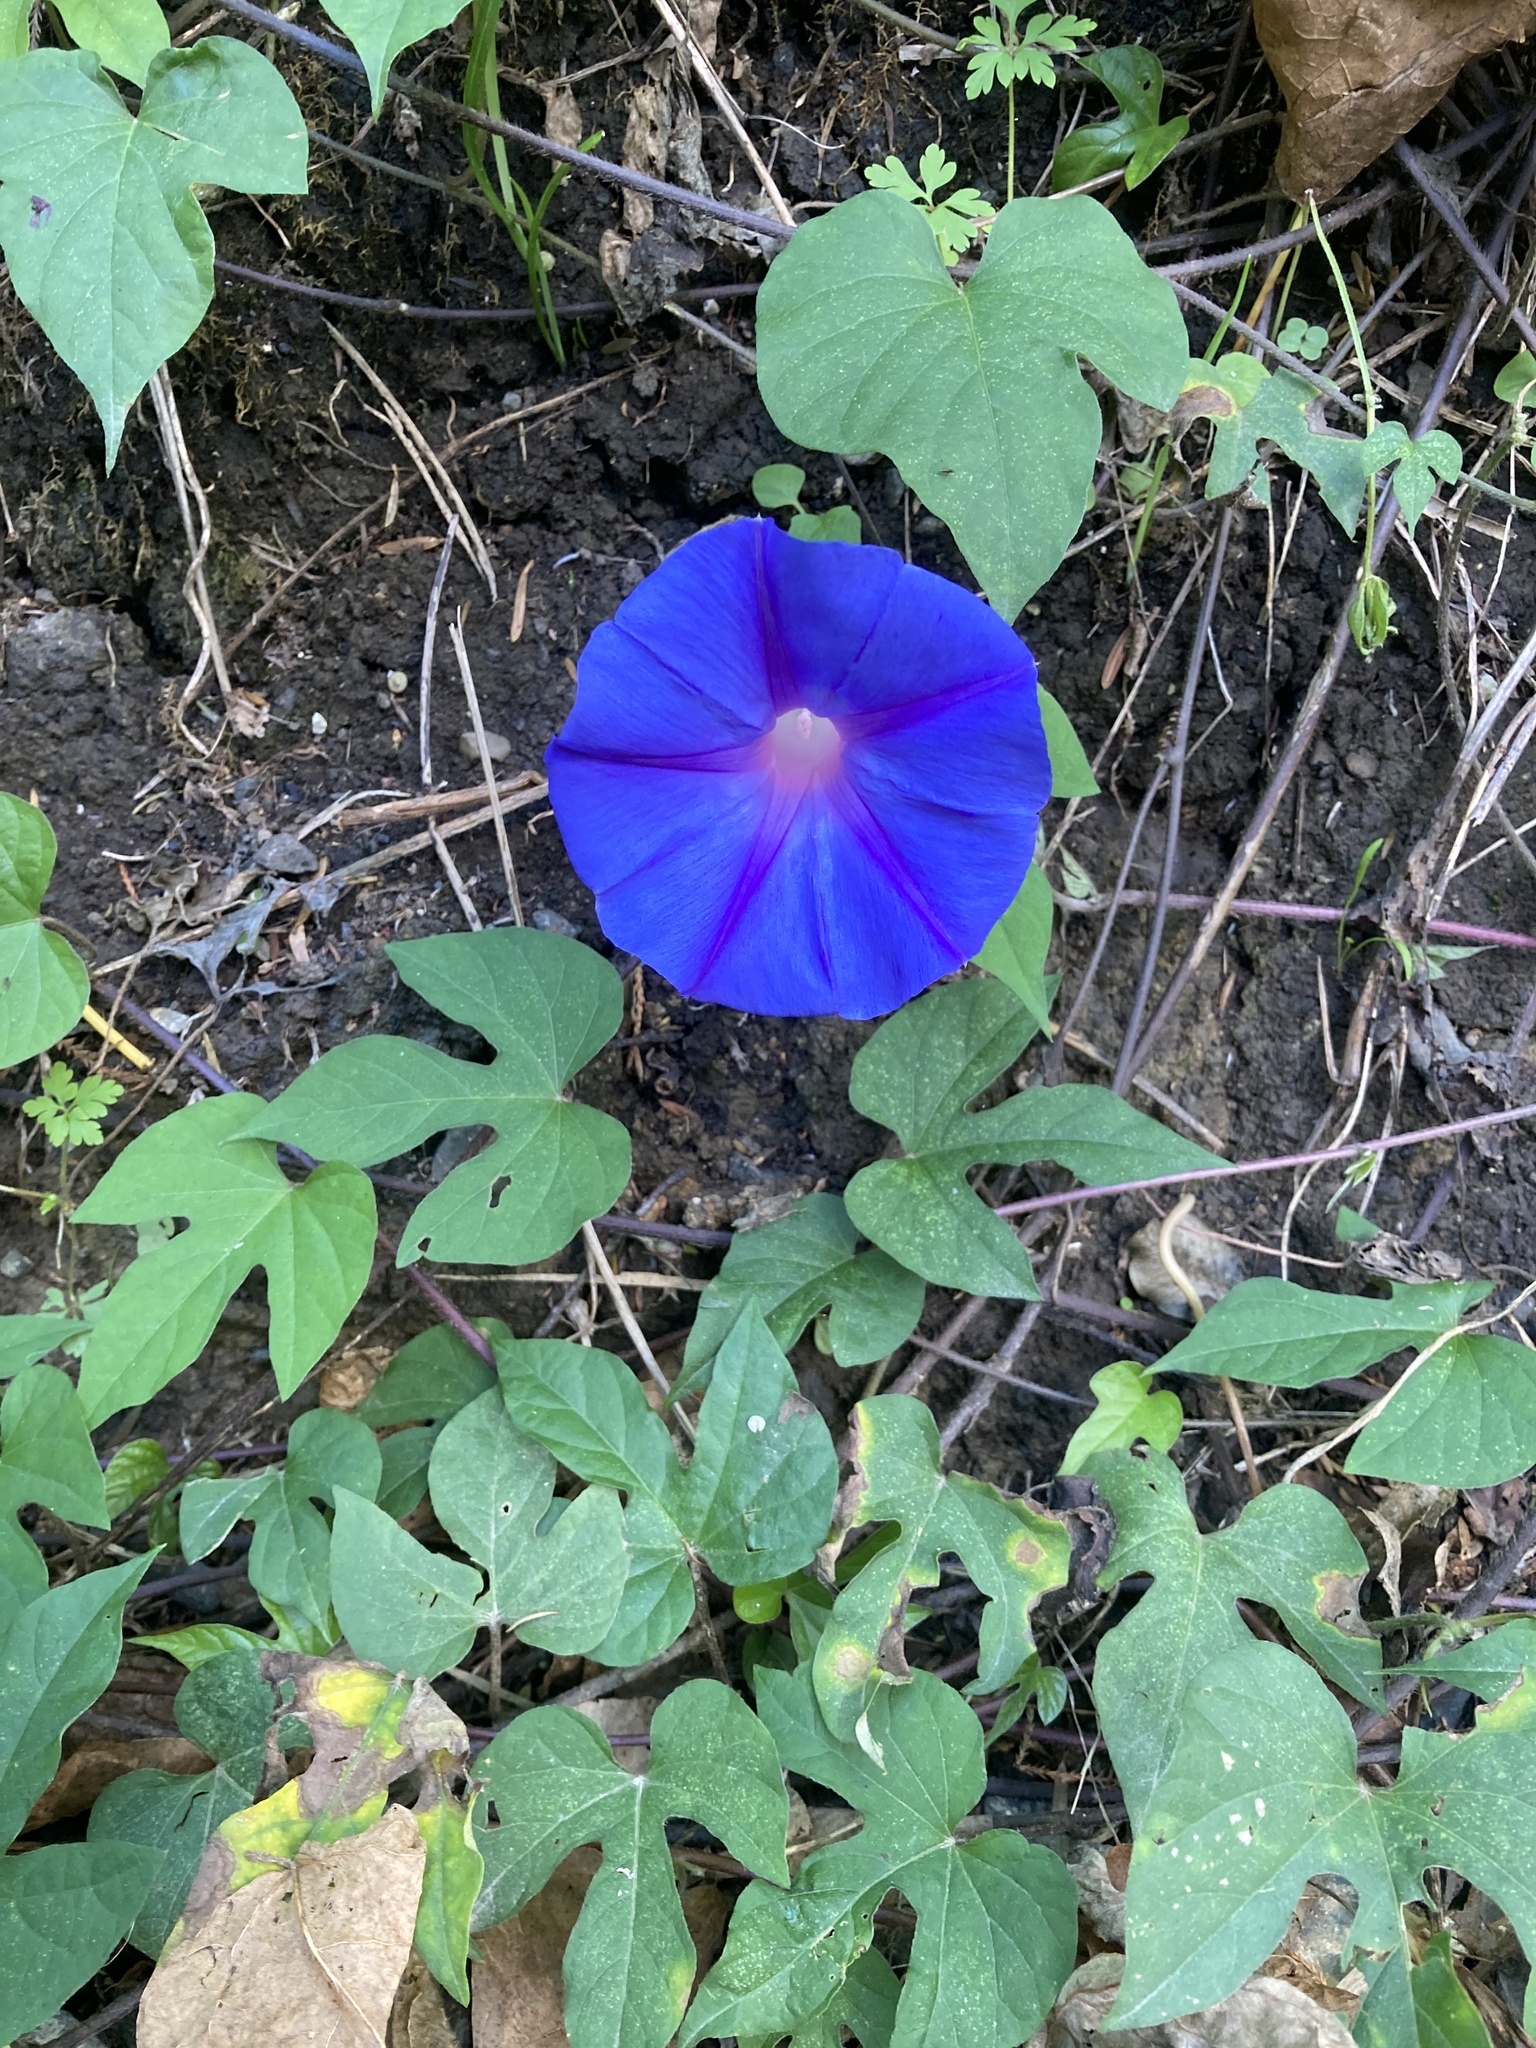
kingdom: Plantae
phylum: Tracheophyta
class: Magnoliopsida
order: Solanales
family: Convolvulaceae
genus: Ipomoea
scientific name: Ipomoea indica
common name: Blue dawnflower
